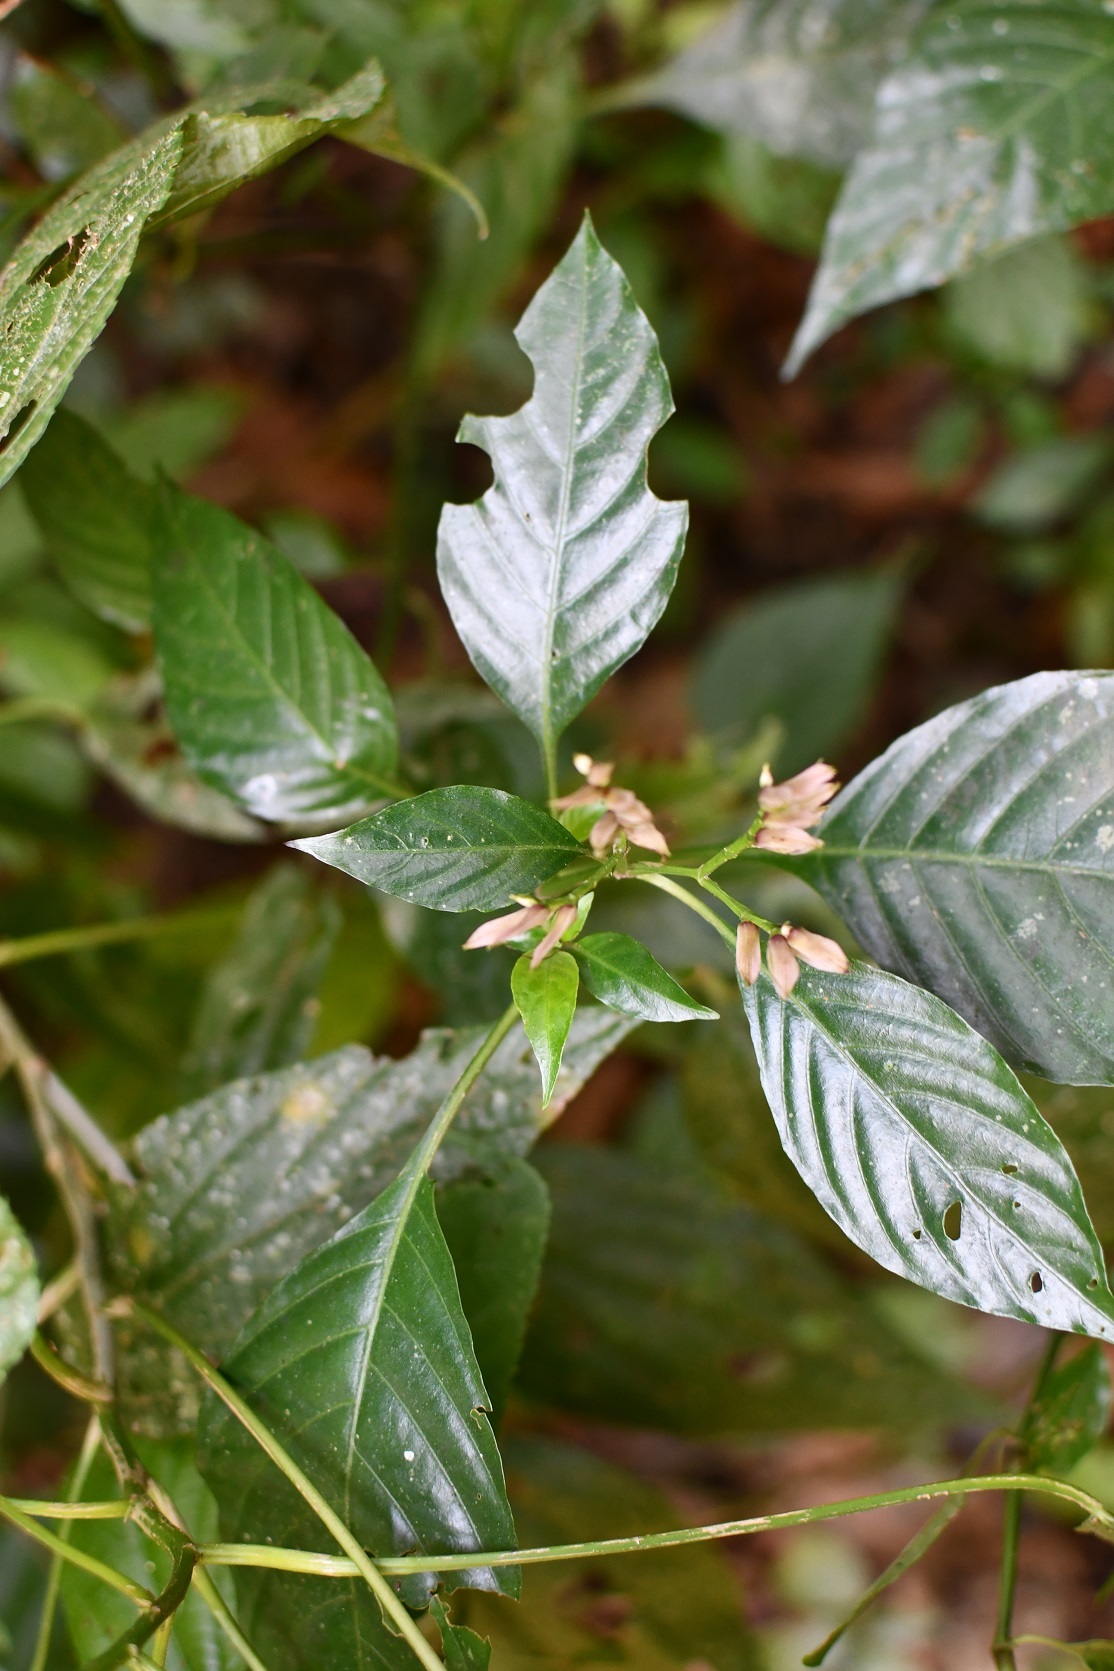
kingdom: Plantae
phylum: Tracheophyta
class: Magnoliopsida
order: Lamiales
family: Acanthaceae
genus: Lepidagathis
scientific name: Lepidagathis chiapensis
